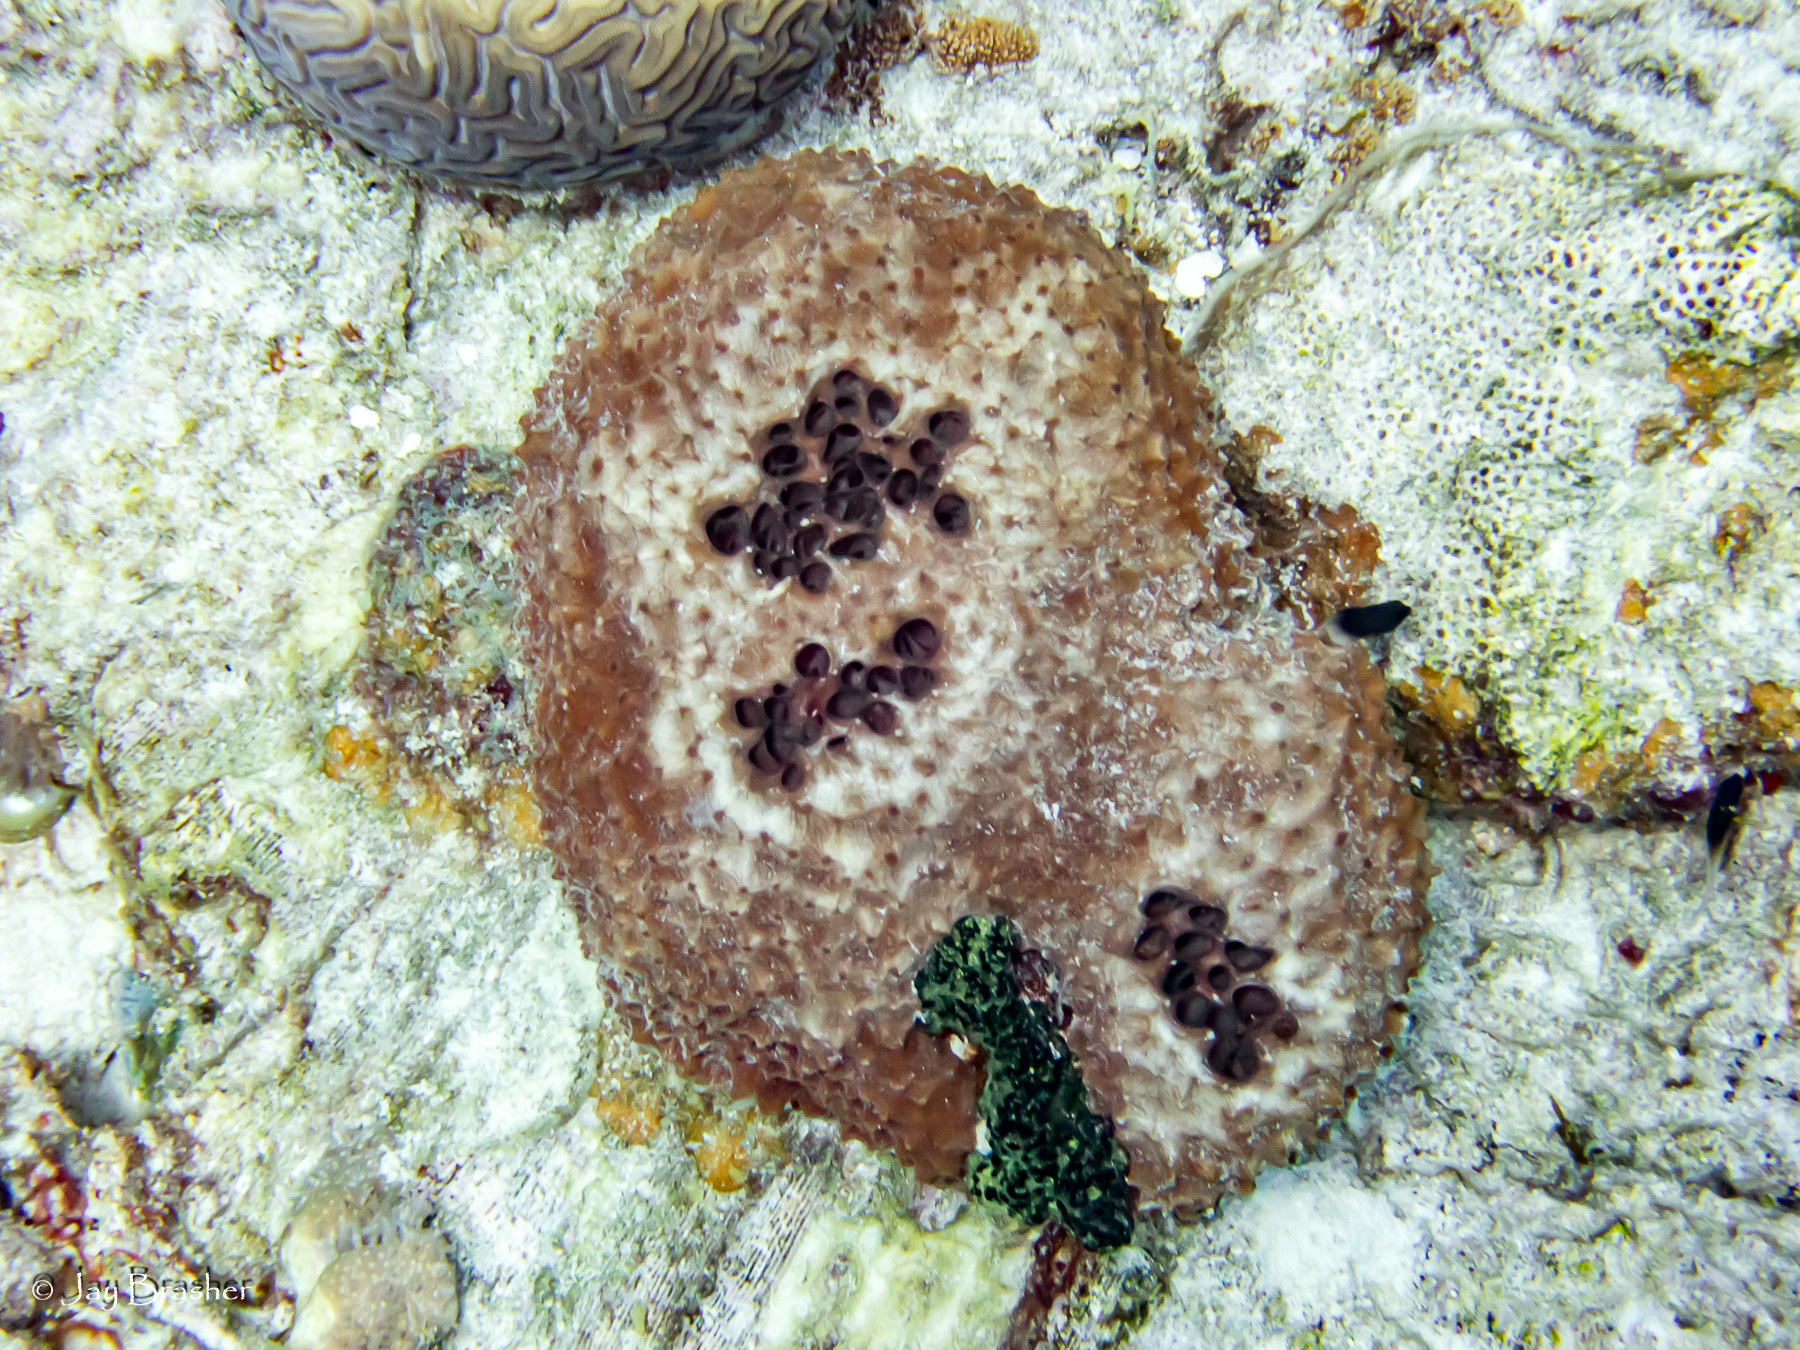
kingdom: Animalia
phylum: Porifera
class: Demospongiae
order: Poecilosclerida
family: Iotrochotidae
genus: Iotrochota
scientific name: Iotrochota birotulata
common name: Purple bleeding sponge
